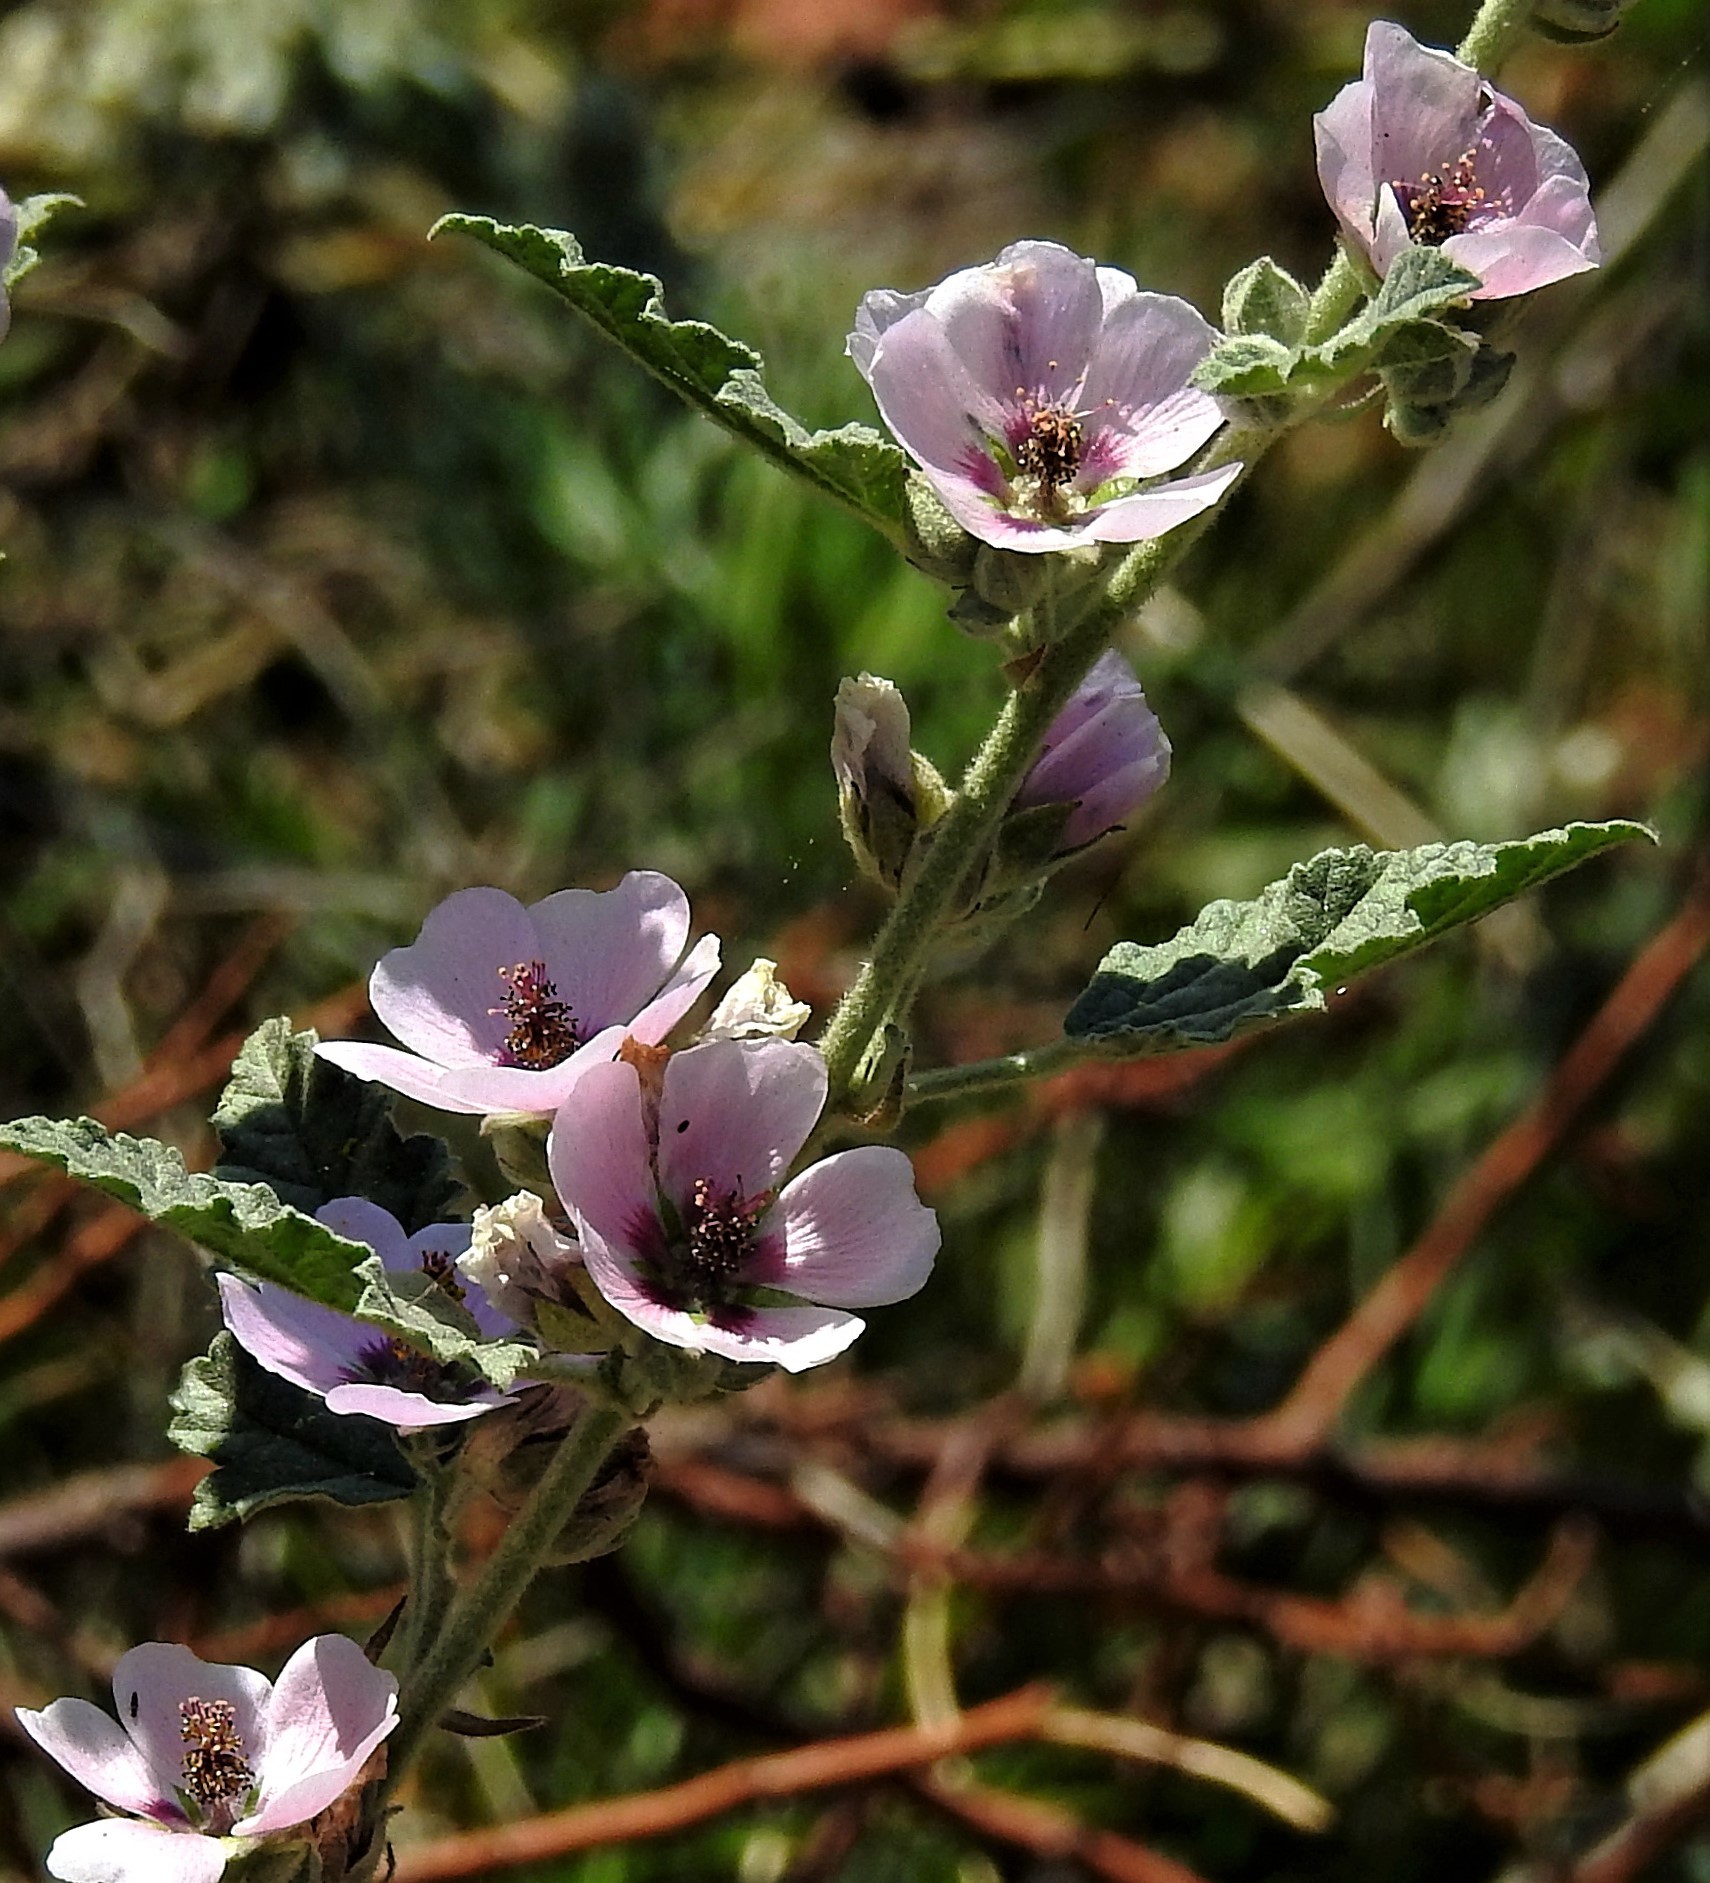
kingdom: Plantae
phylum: Tracheophyta
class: Magnoliopsida
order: Malvales
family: Malvaceae
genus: Sphaeralcea
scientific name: Sphaeralcea brevipes
